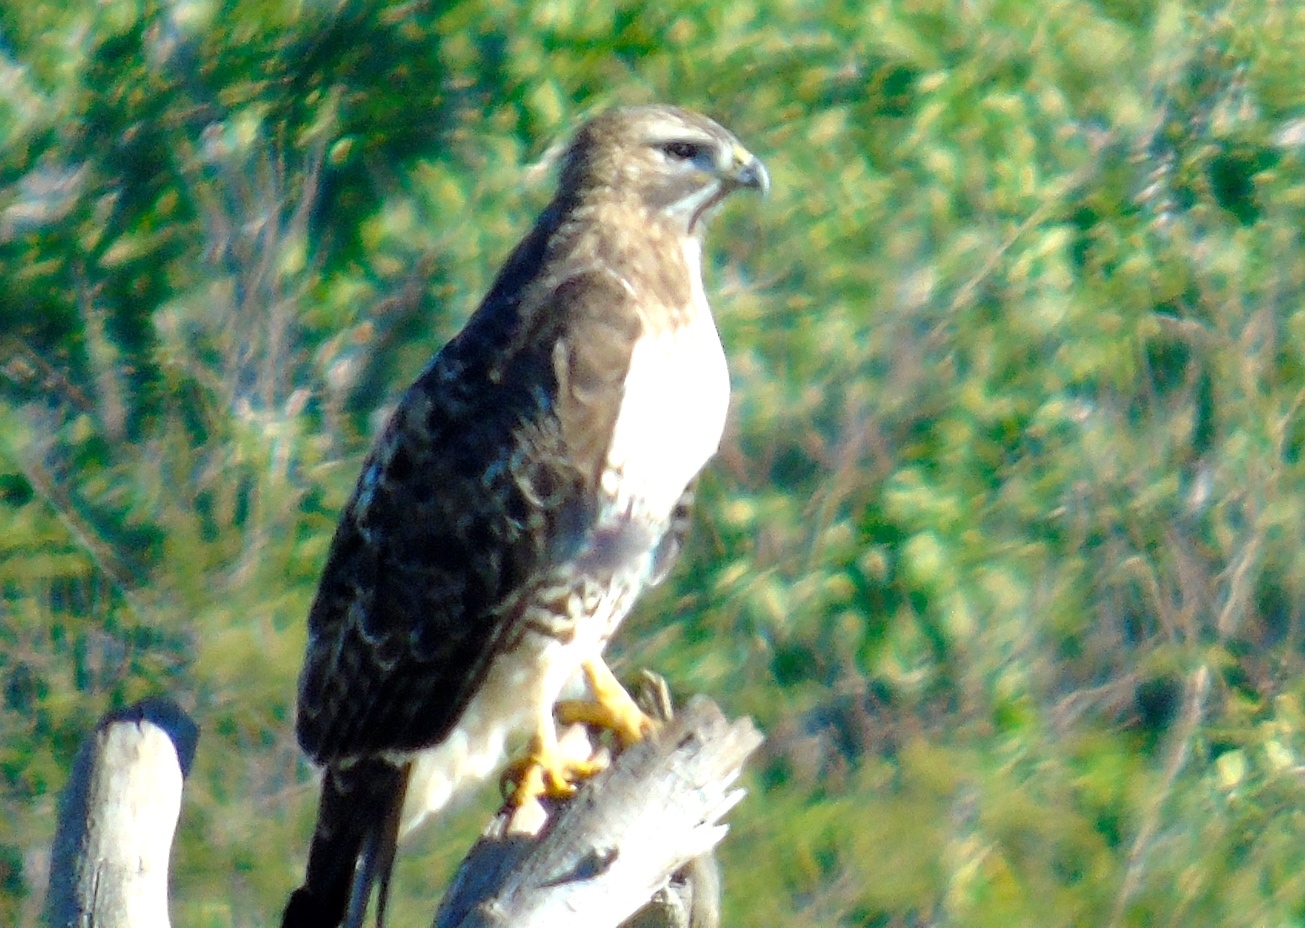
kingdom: Animalia
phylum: Chordata
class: Aves
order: Accipitriformes
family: Accipitridae
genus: Buteo
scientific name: Buteo jamaicensis
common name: Red-tailed hawk
